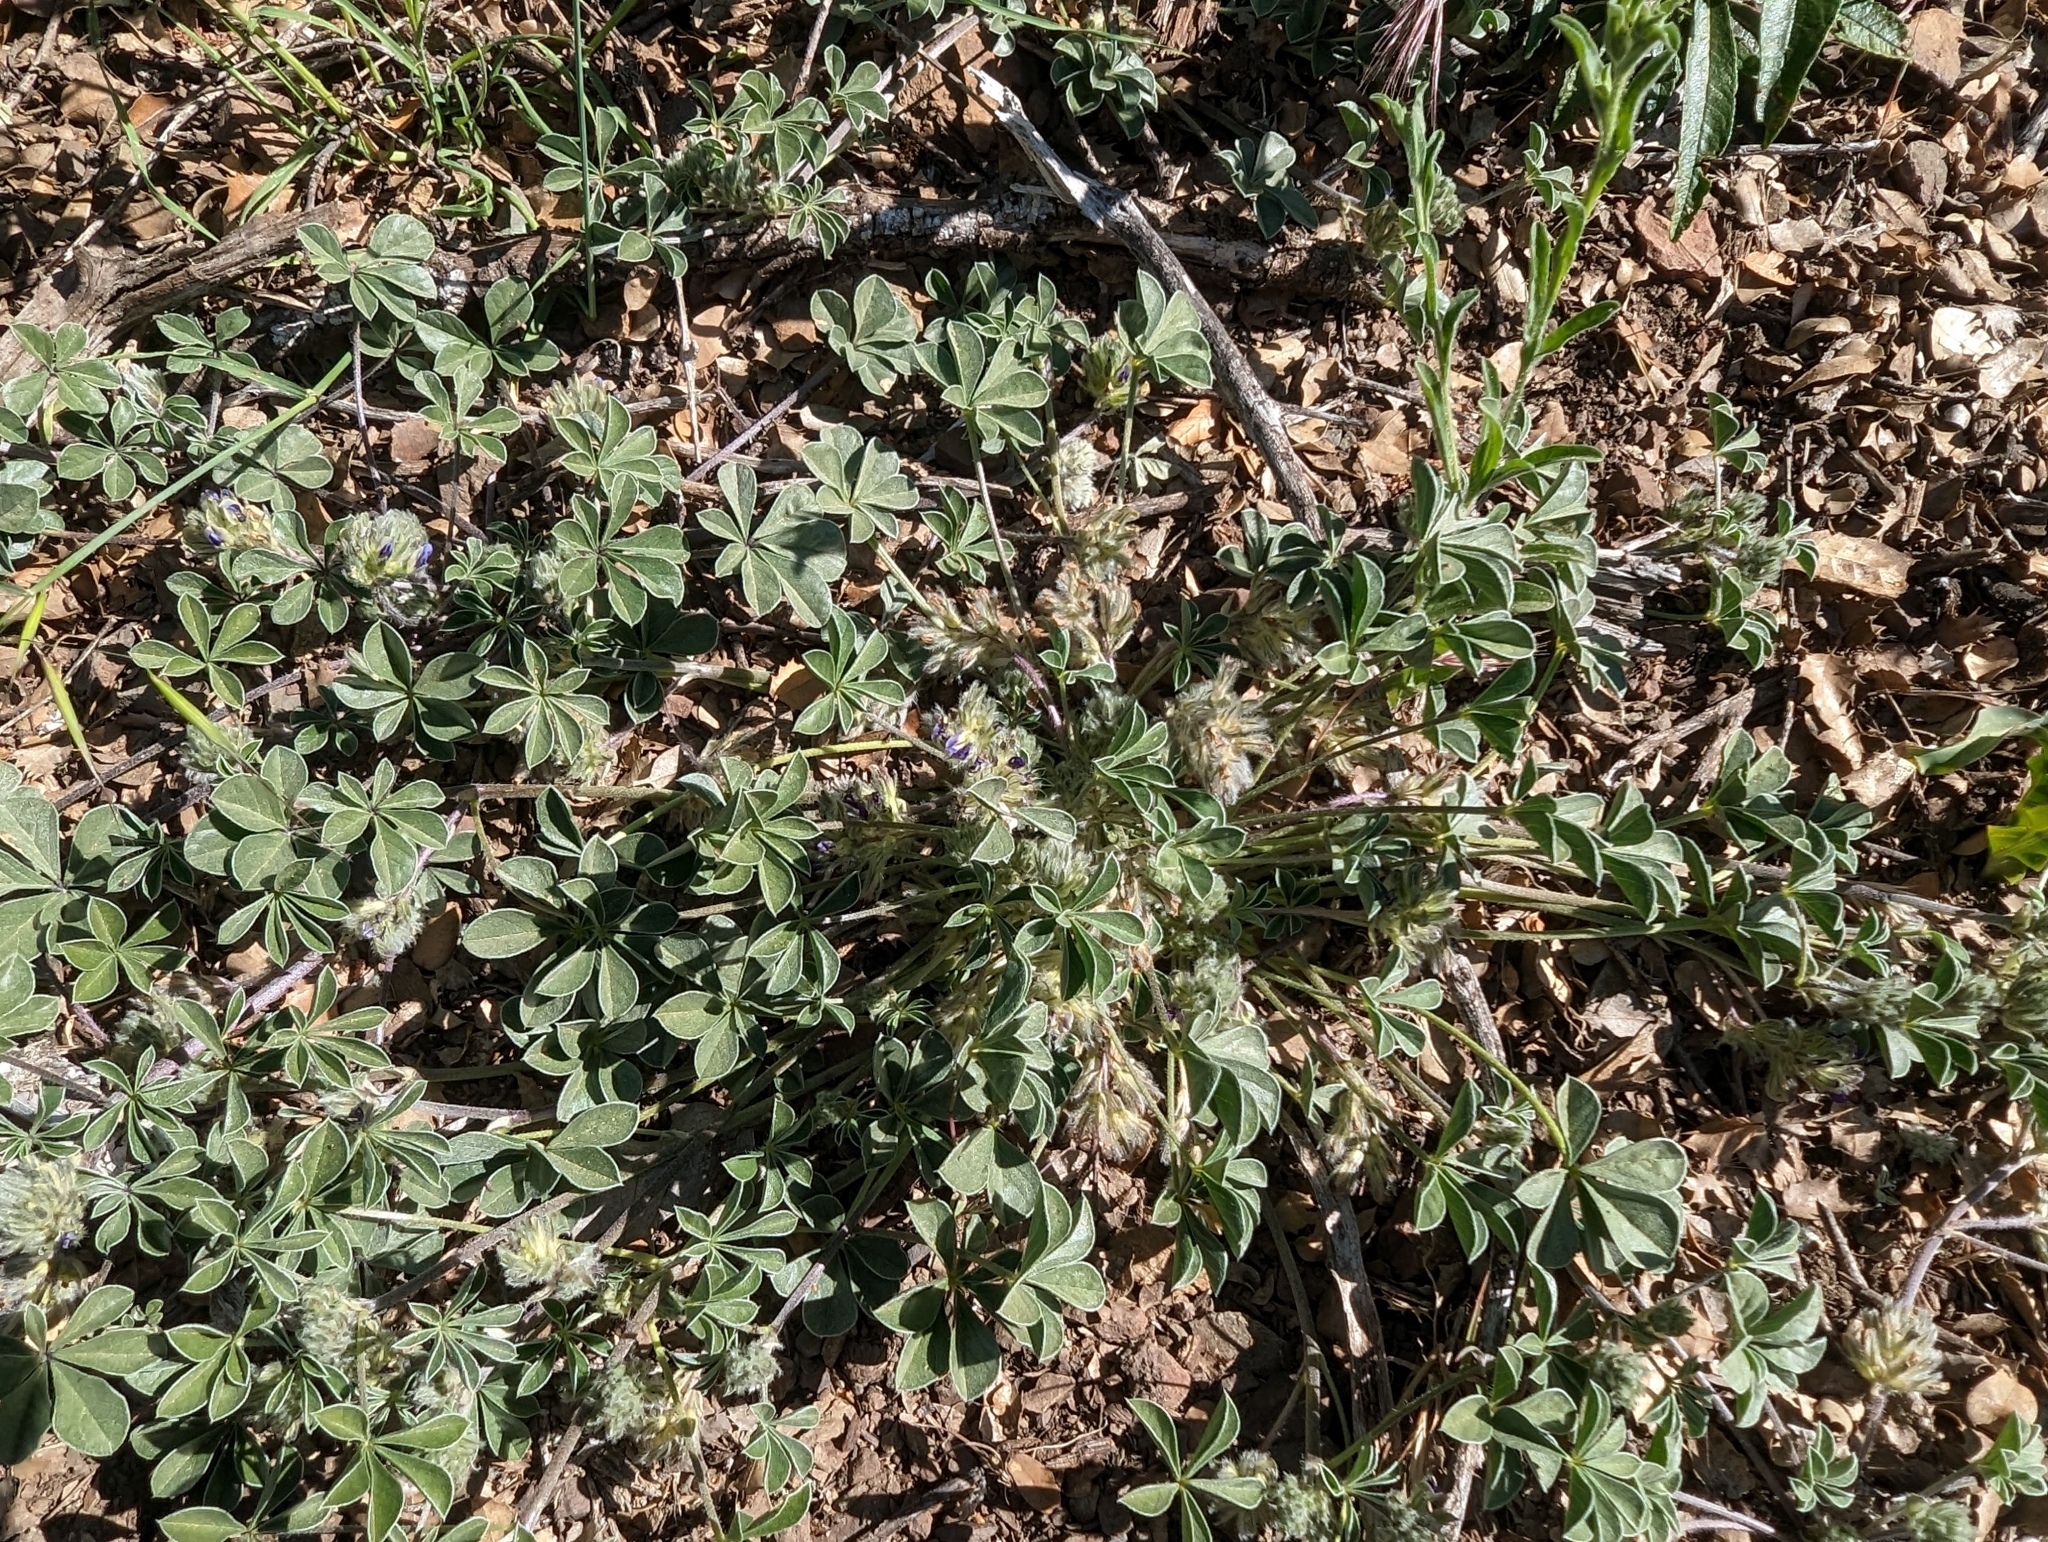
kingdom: Plantae
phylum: Tracheophyta
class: Magnoliopsida
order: Fabales
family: Fabaceae
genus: Pediomelum
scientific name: Pediomelum californicum
